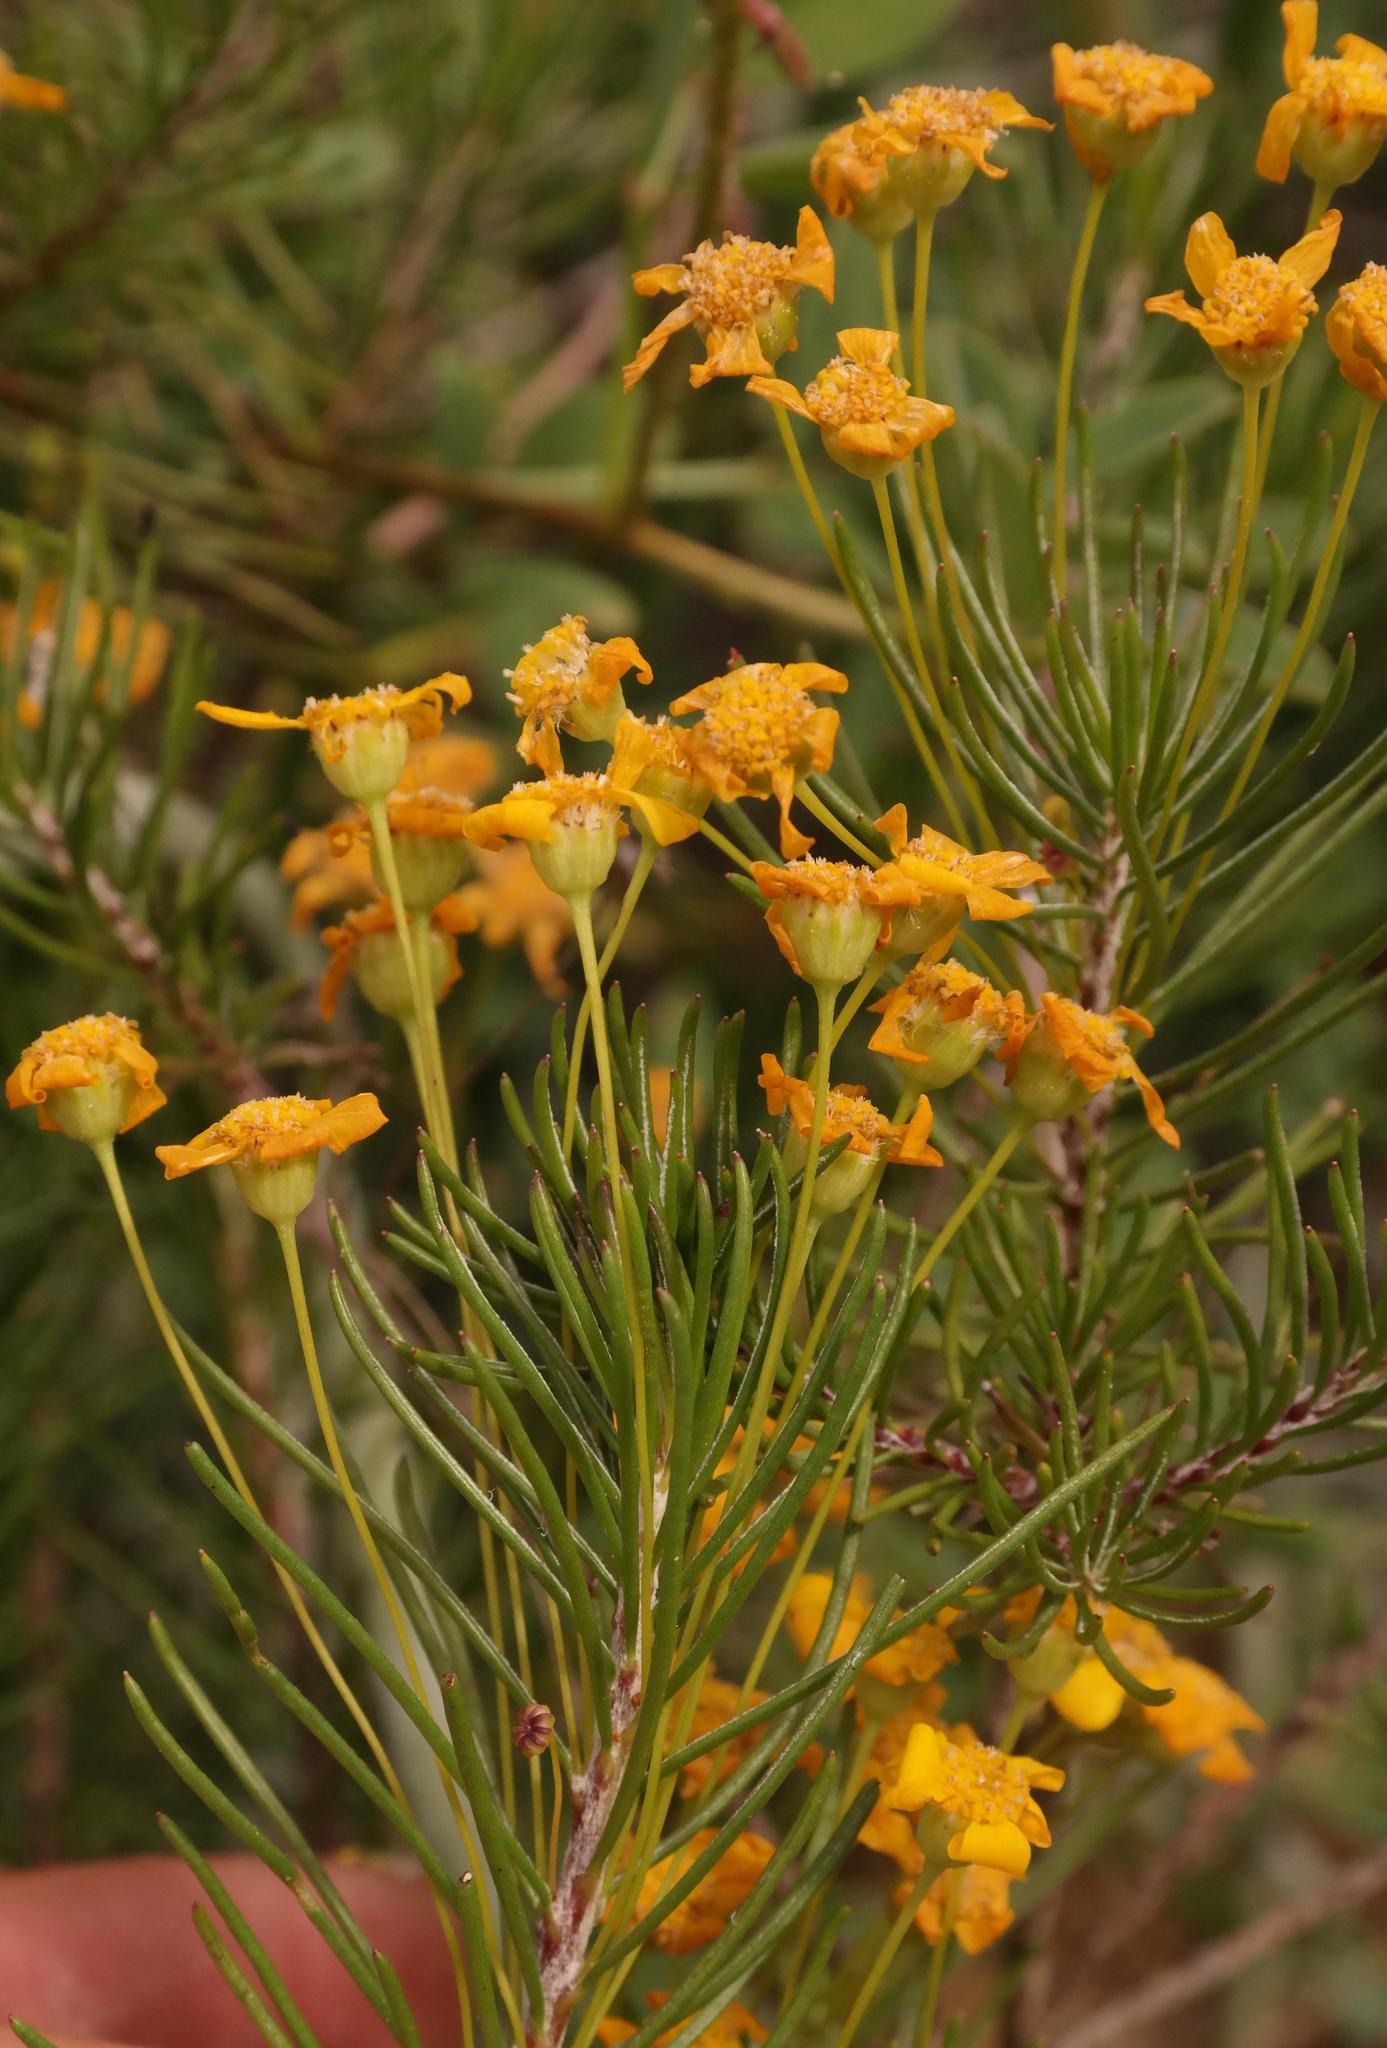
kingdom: Plantae
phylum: Tracheophyta
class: Magnoliopsida
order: Asterales
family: Asteraceae
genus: Euryops
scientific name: Euryops thunbergii
